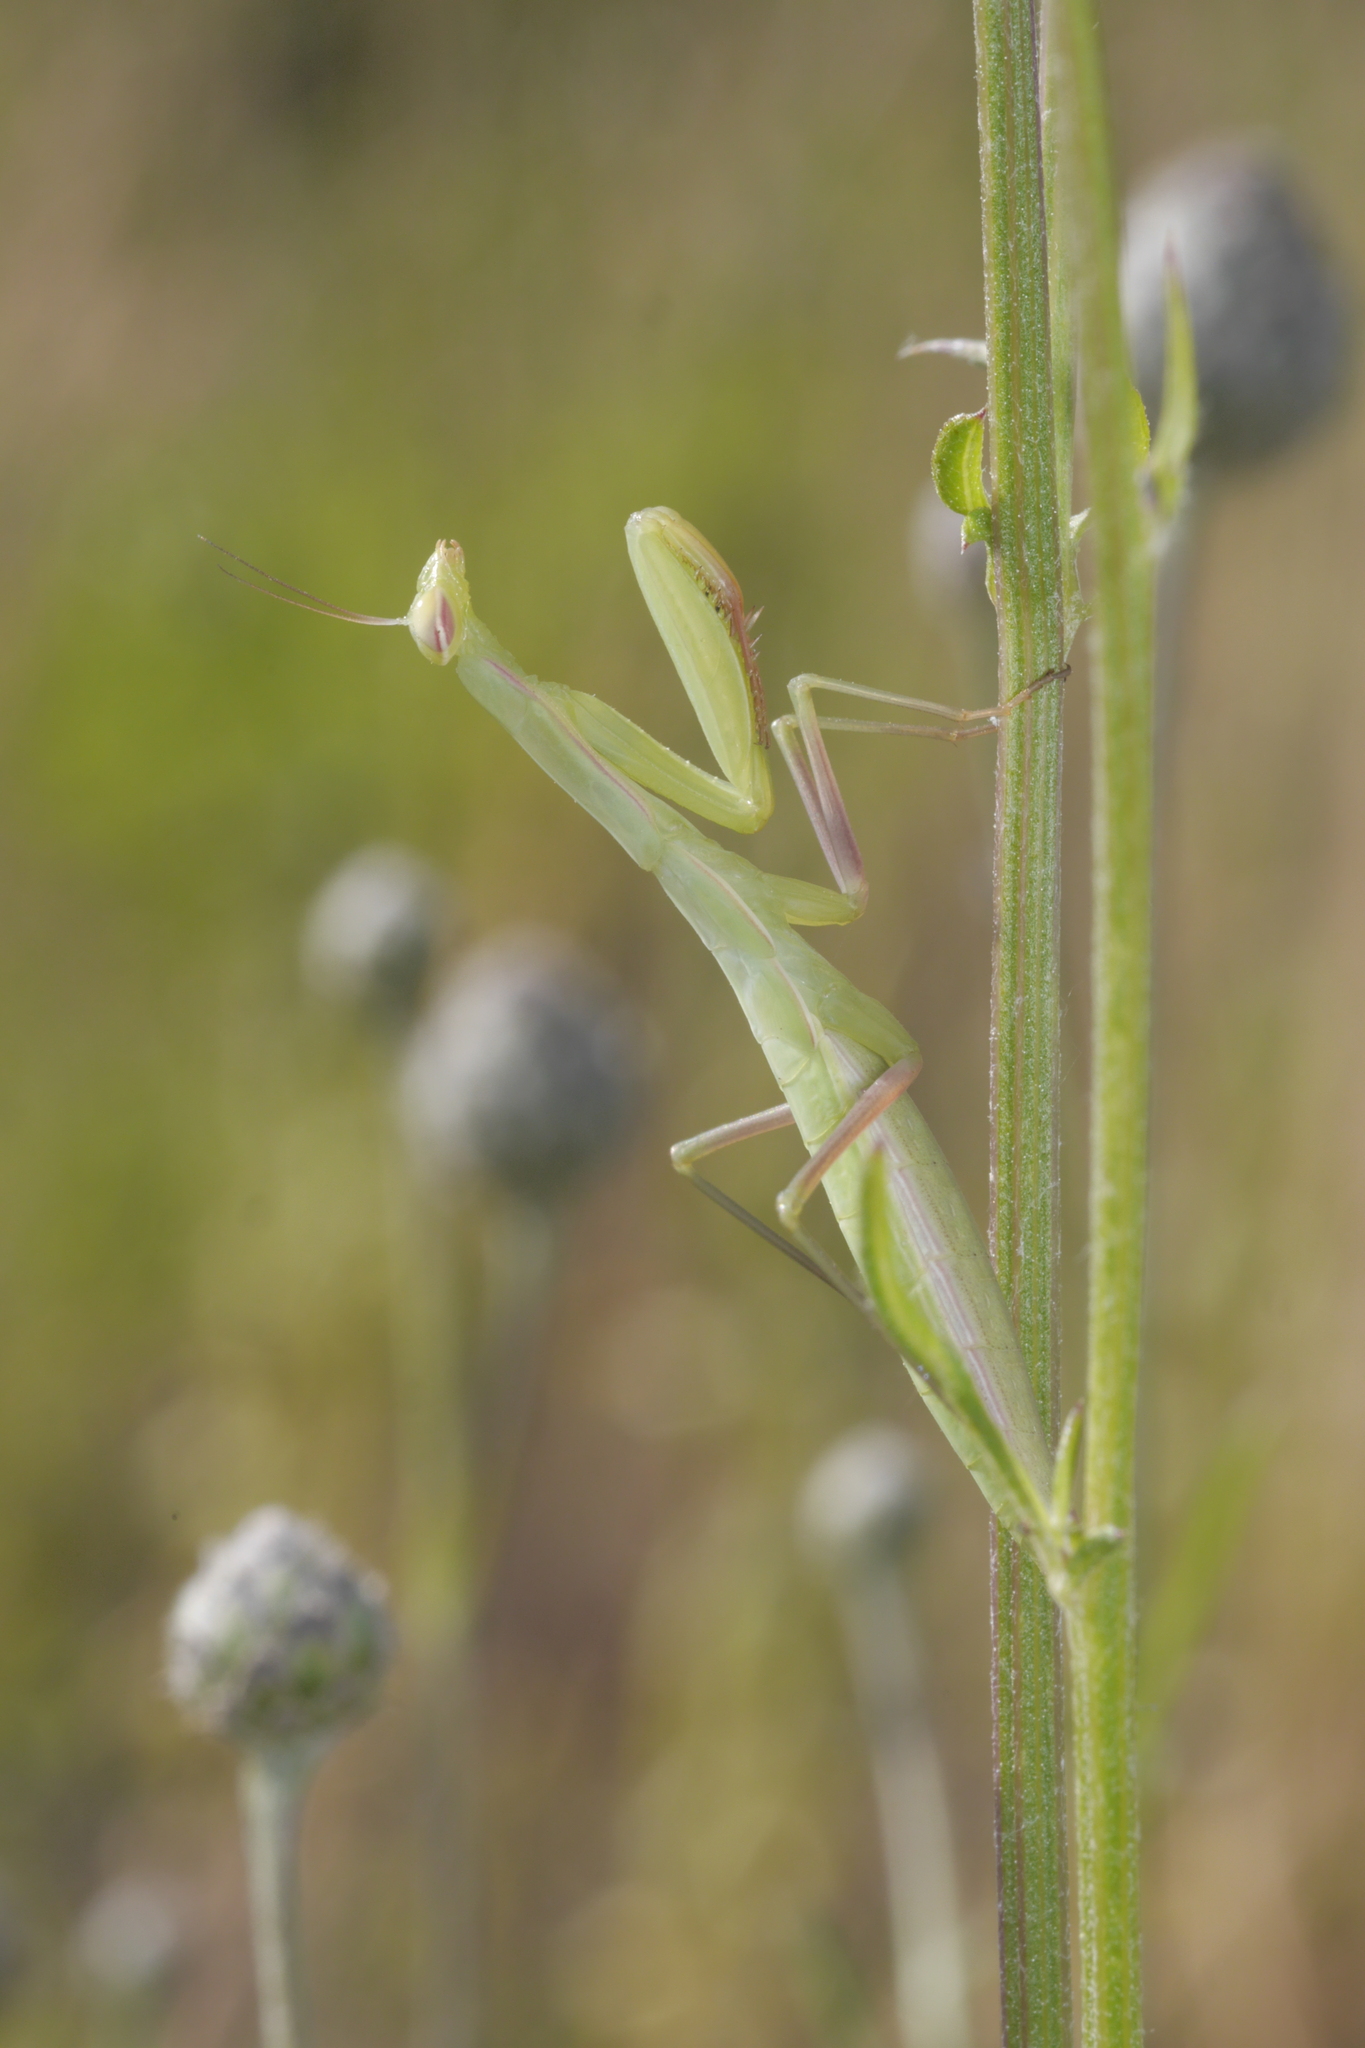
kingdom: Animalia
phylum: Arthropoda
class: Insecta
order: Mantodea
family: Mantidae
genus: Mantis
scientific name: Mantis religiosa
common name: Praying mantis
